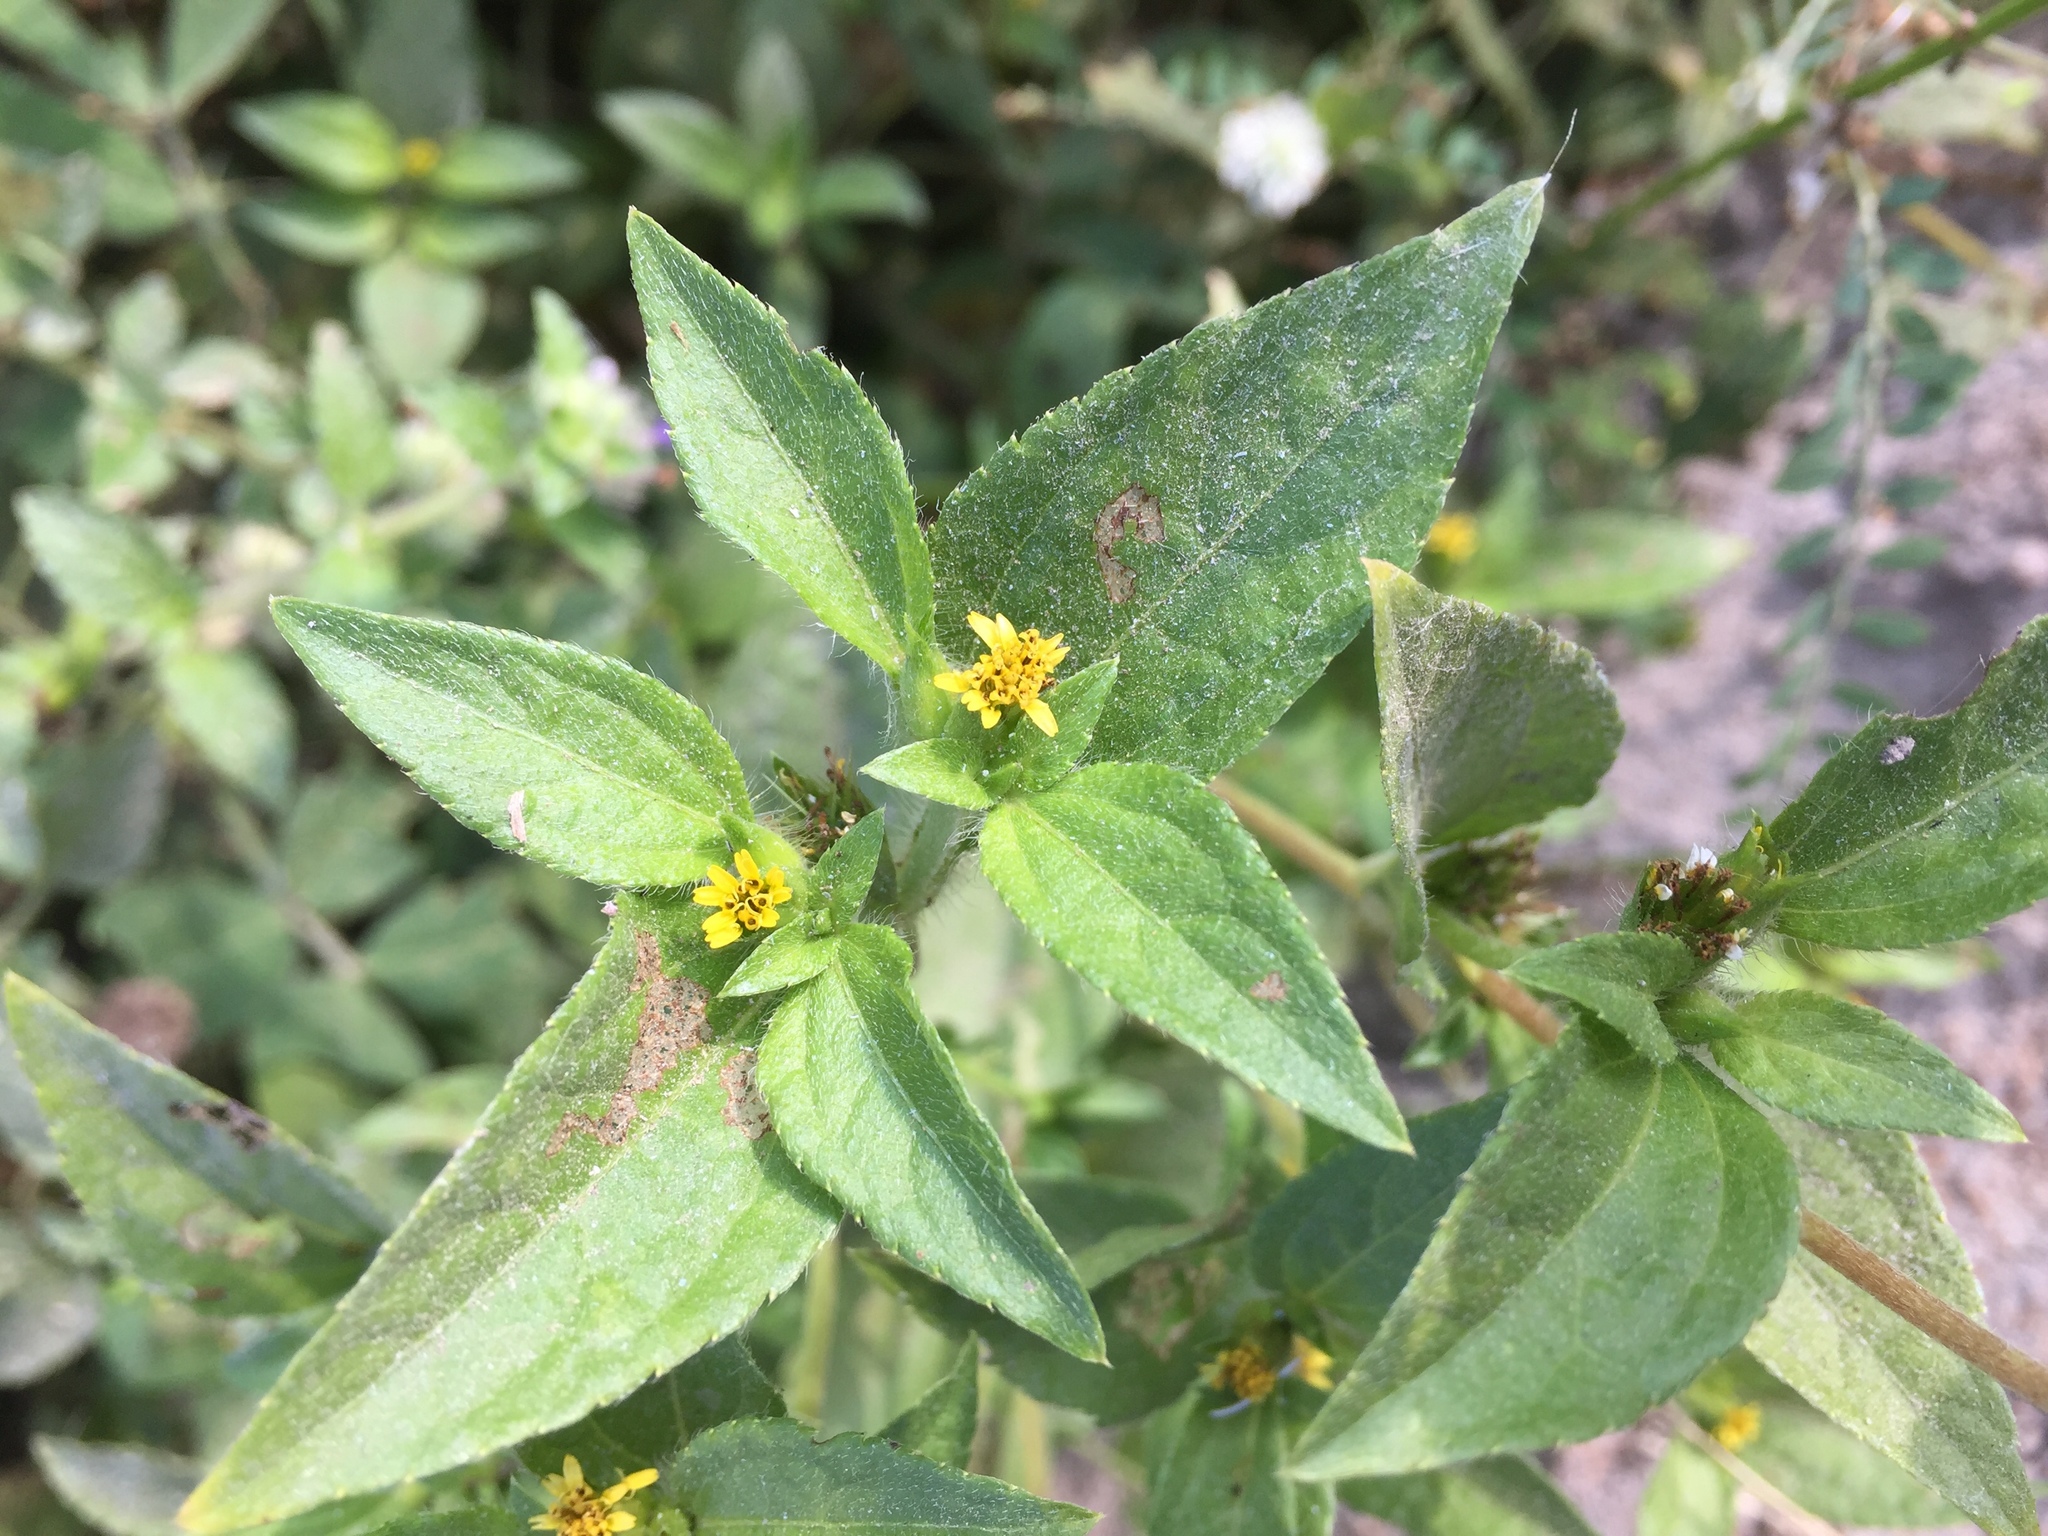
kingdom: Plantae
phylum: Tracheophyta
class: Magnoliopsida
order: Asterales
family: Asteraceae
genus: Calyptocarpus
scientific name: Calyptocarpus vialis
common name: Straggler daisy
